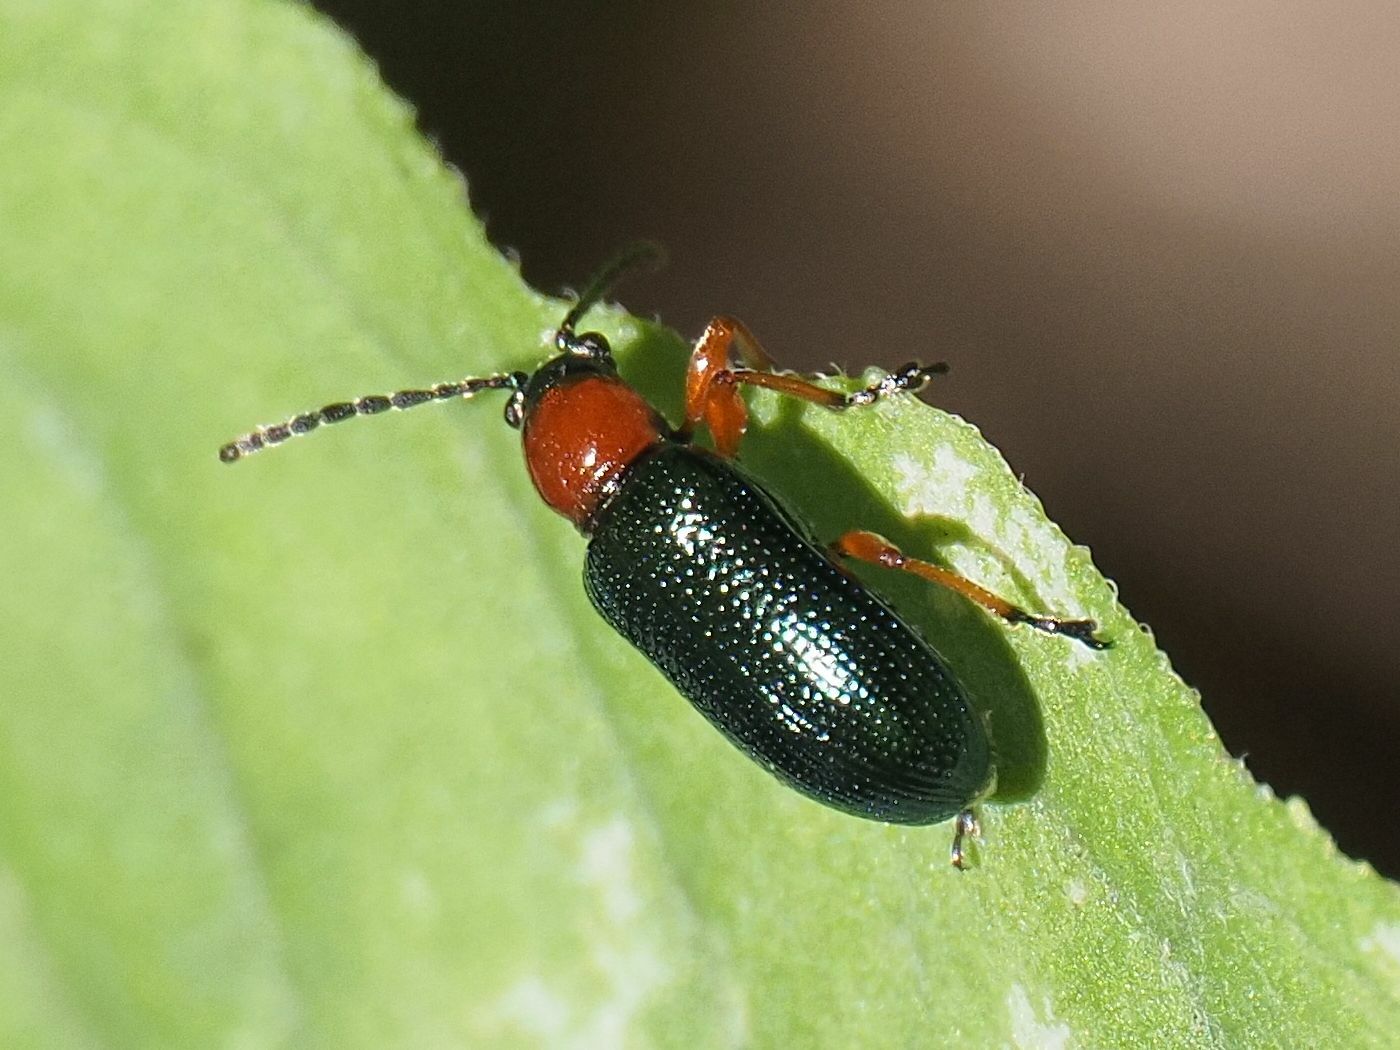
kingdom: Animalia
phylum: Arthropoda
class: Insecta
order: Coleoptera
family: Chrysomelidae
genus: Oulema
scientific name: Oulema
